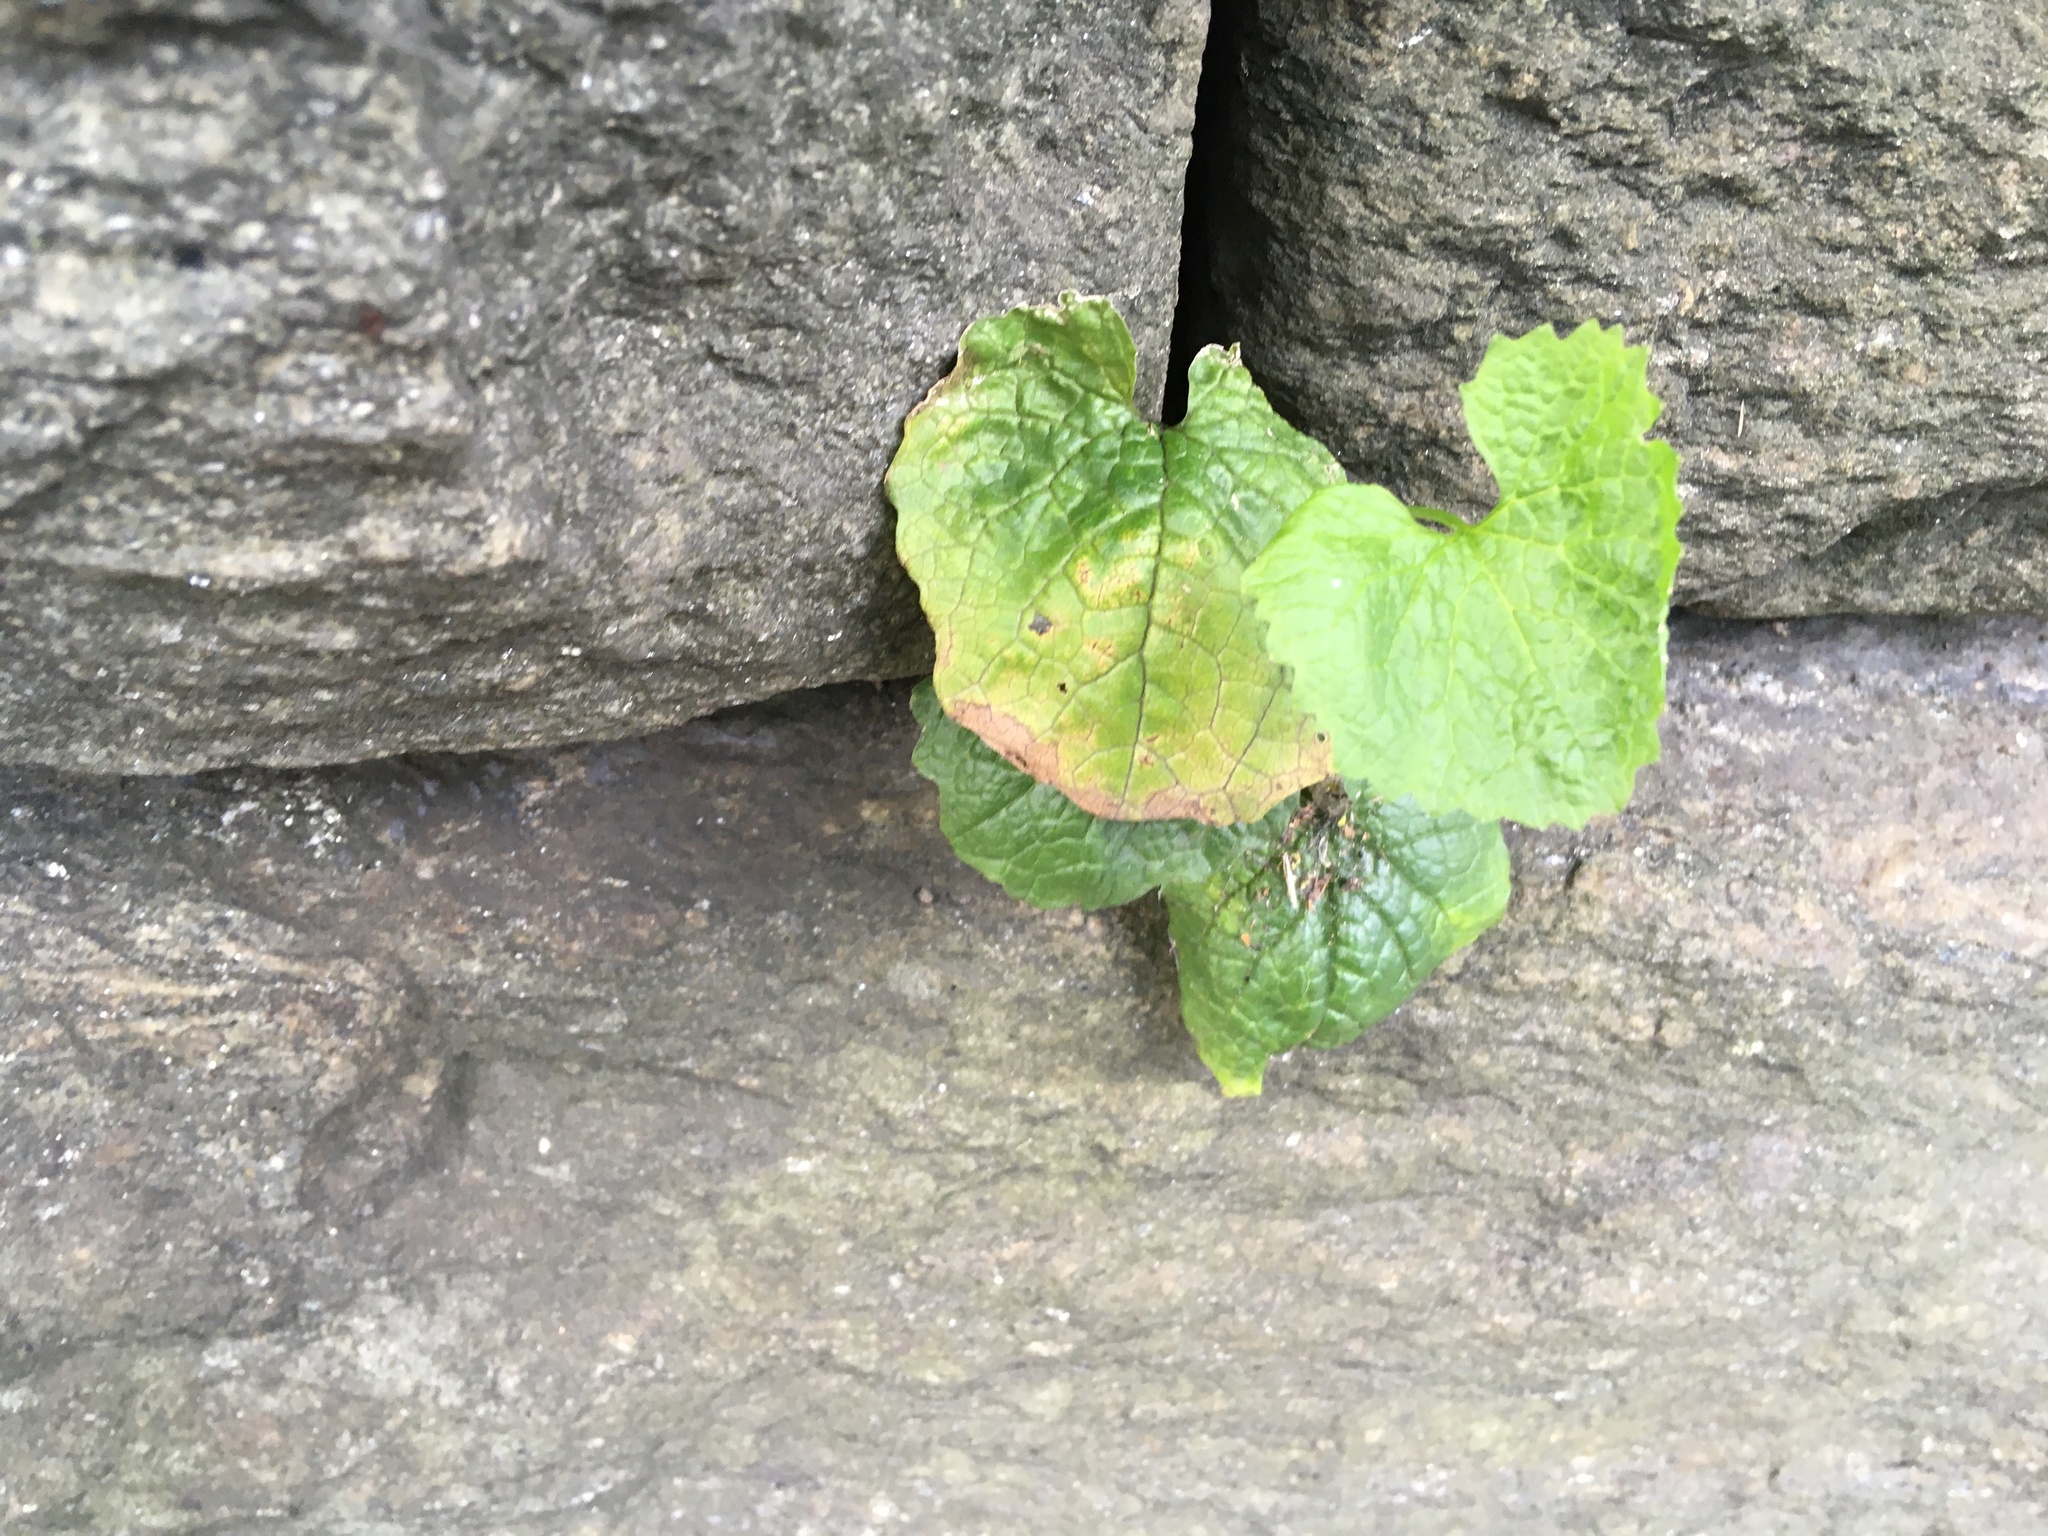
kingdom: Plantae
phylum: Tracheophyta
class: Magnoliopsida
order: Brassicales
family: Brassicaceae
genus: Alliaria
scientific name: Alliaria petiolata
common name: Garlic mustard
